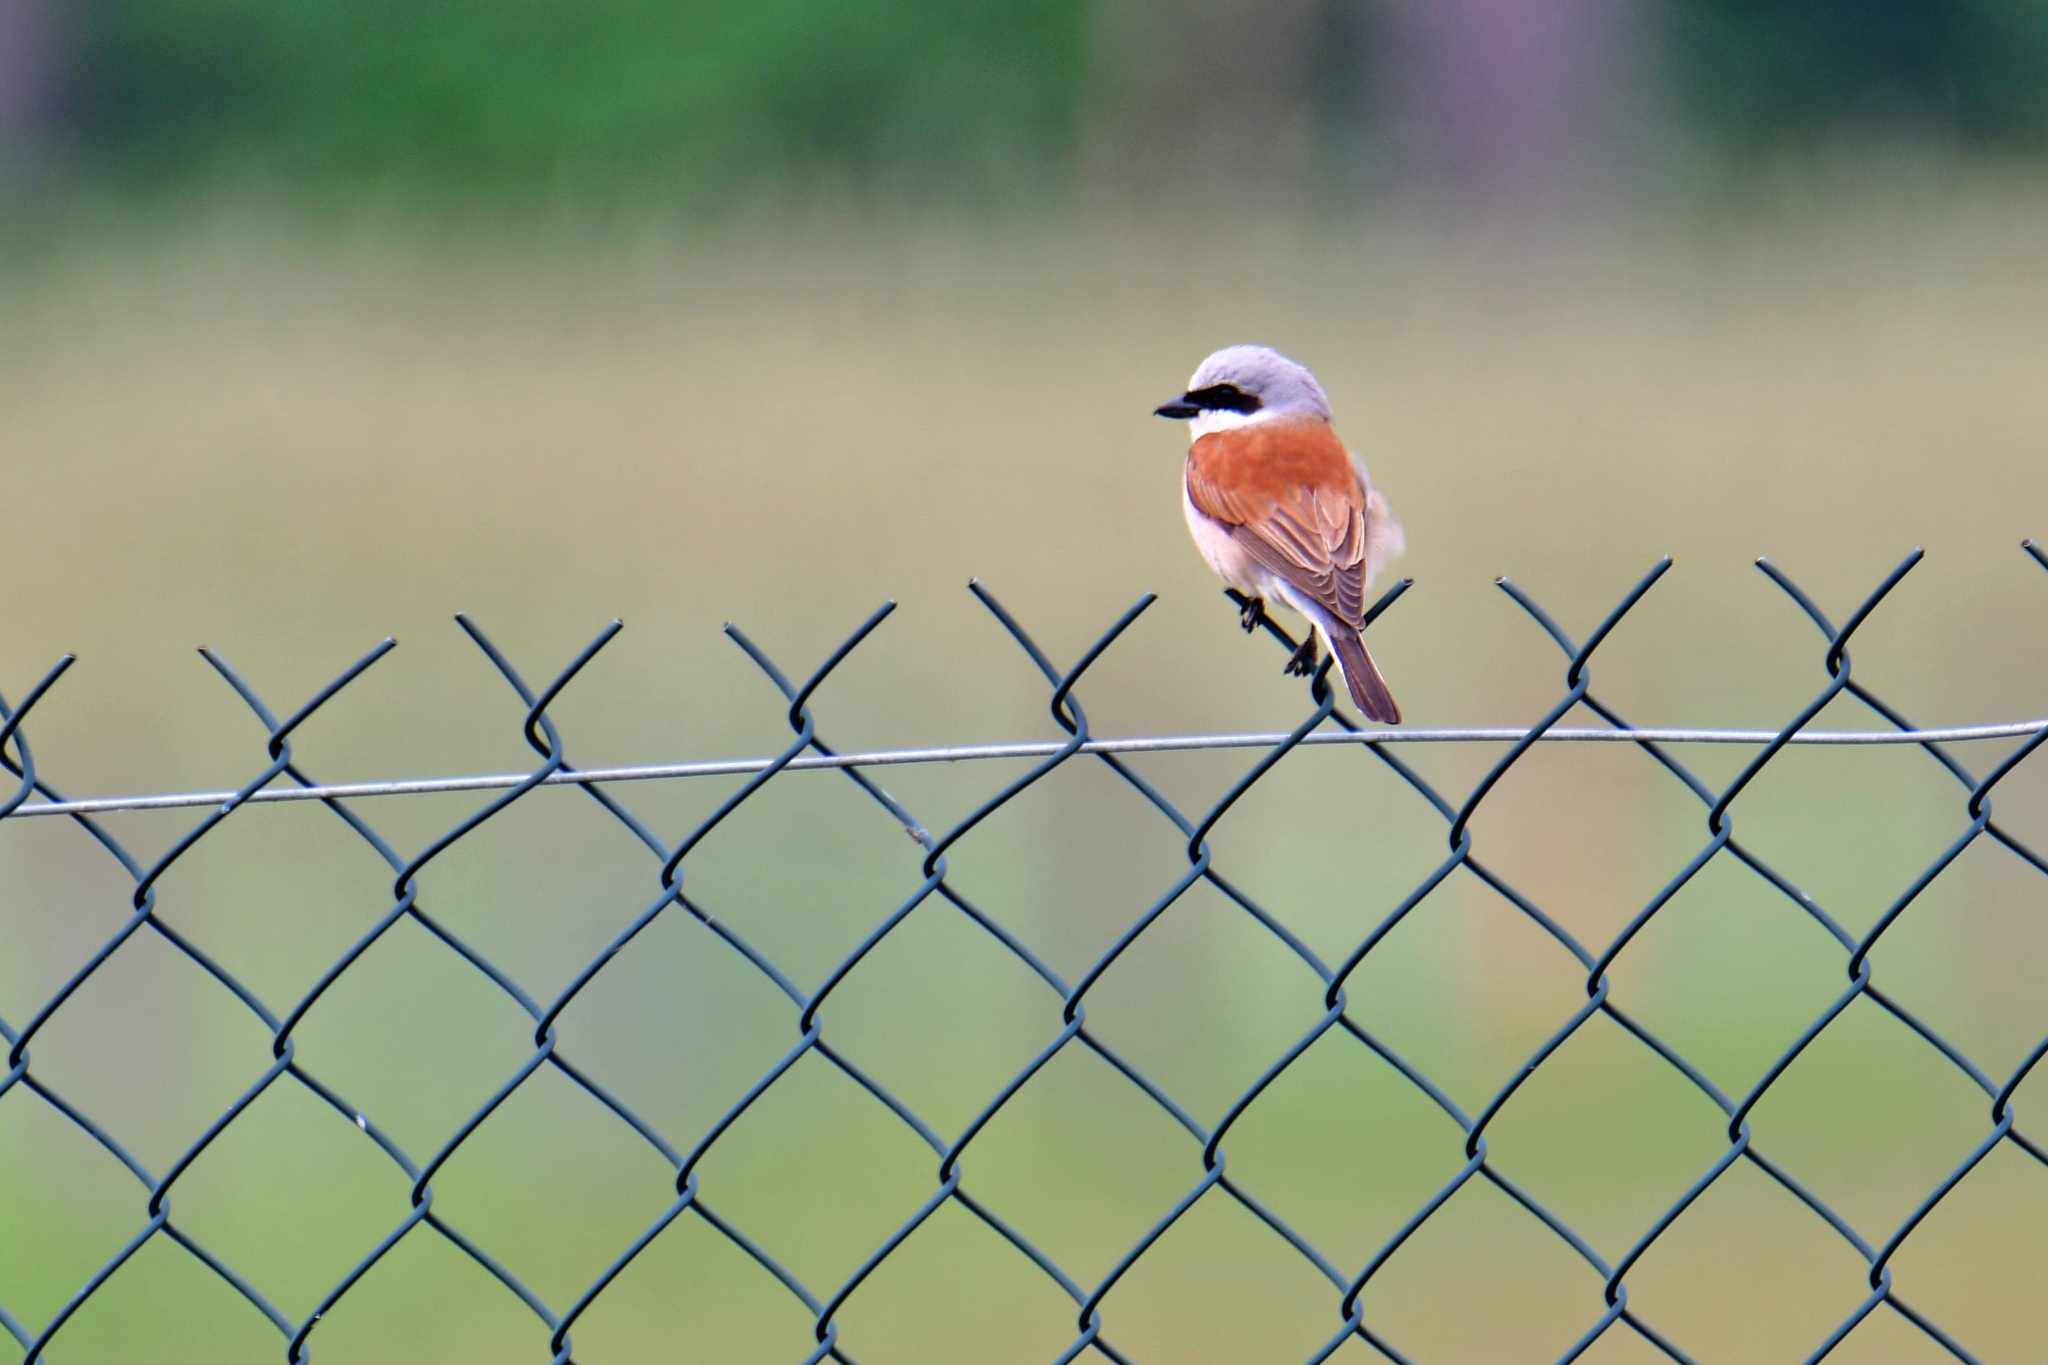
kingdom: Animalia
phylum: Chordata
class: Aves
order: Passeriformes
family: Laniidae
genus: Lanius
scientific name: Lanius collurio
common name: Red-backed shrike
